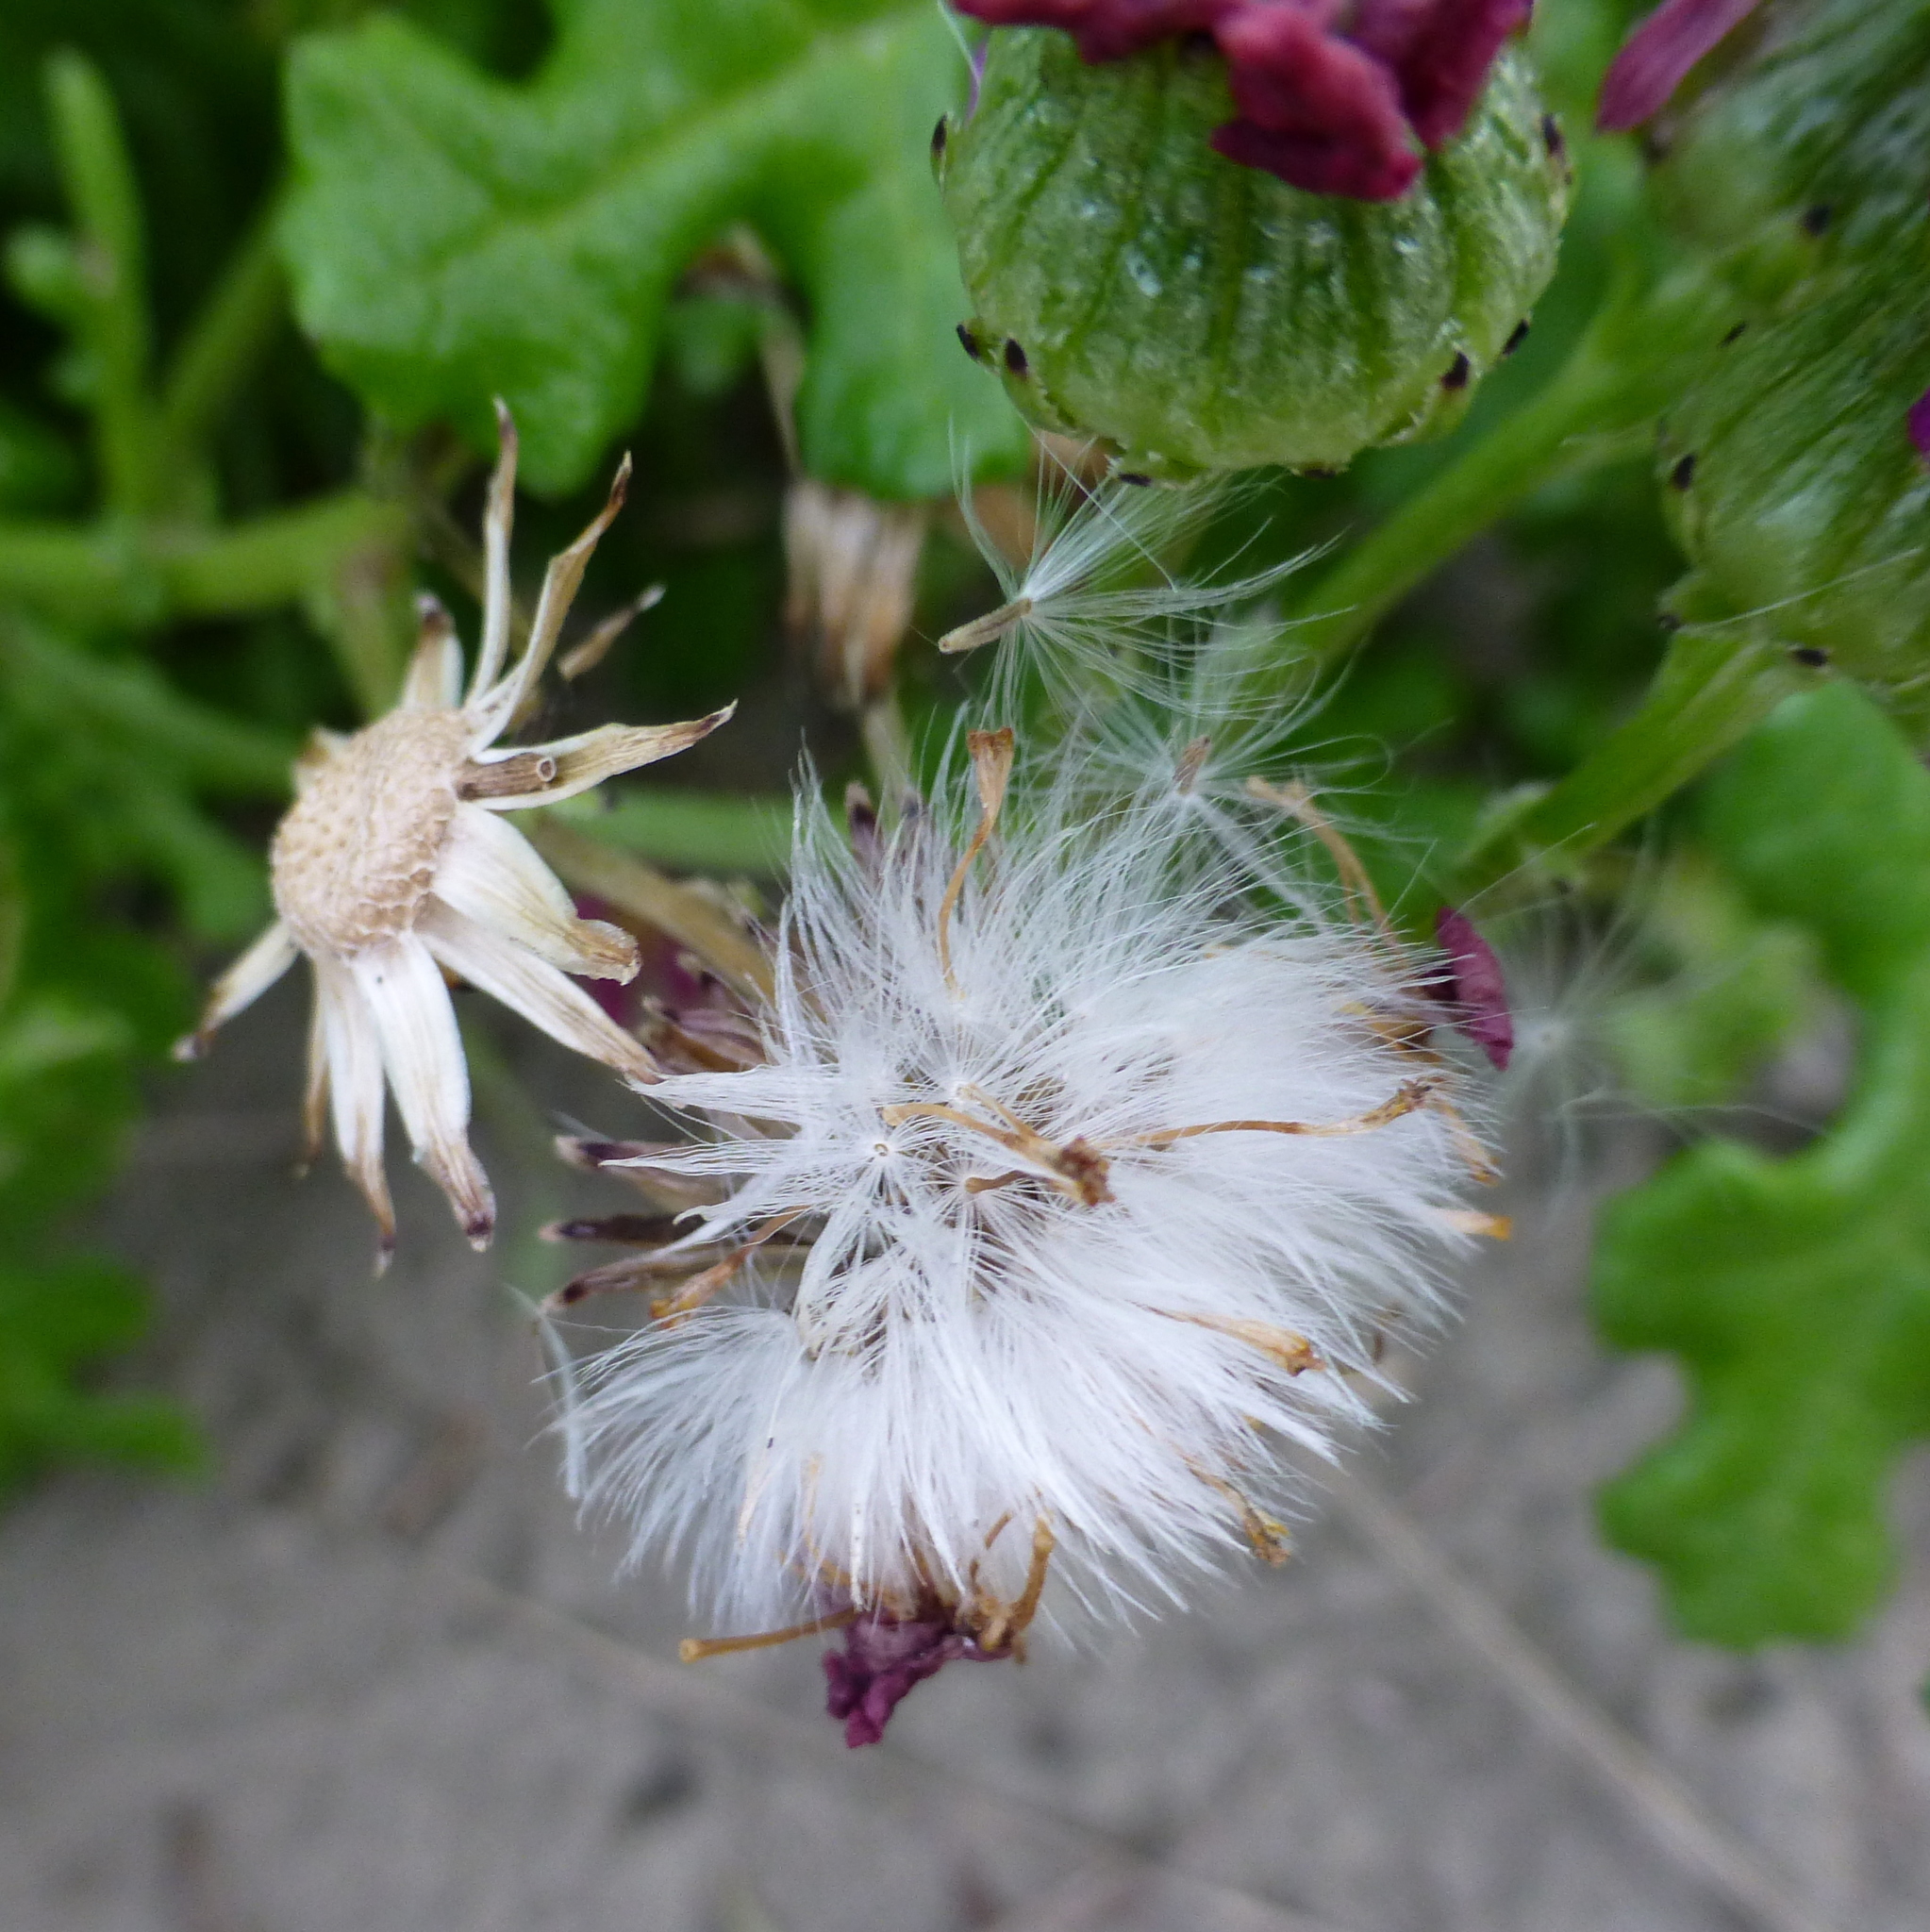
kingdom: Plantae
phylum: Tracheophyta
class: Magnoliopsida
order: Asterales
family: Asteraceae
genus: Senecio
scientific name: Senecio elegans
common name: Purple groundsel
